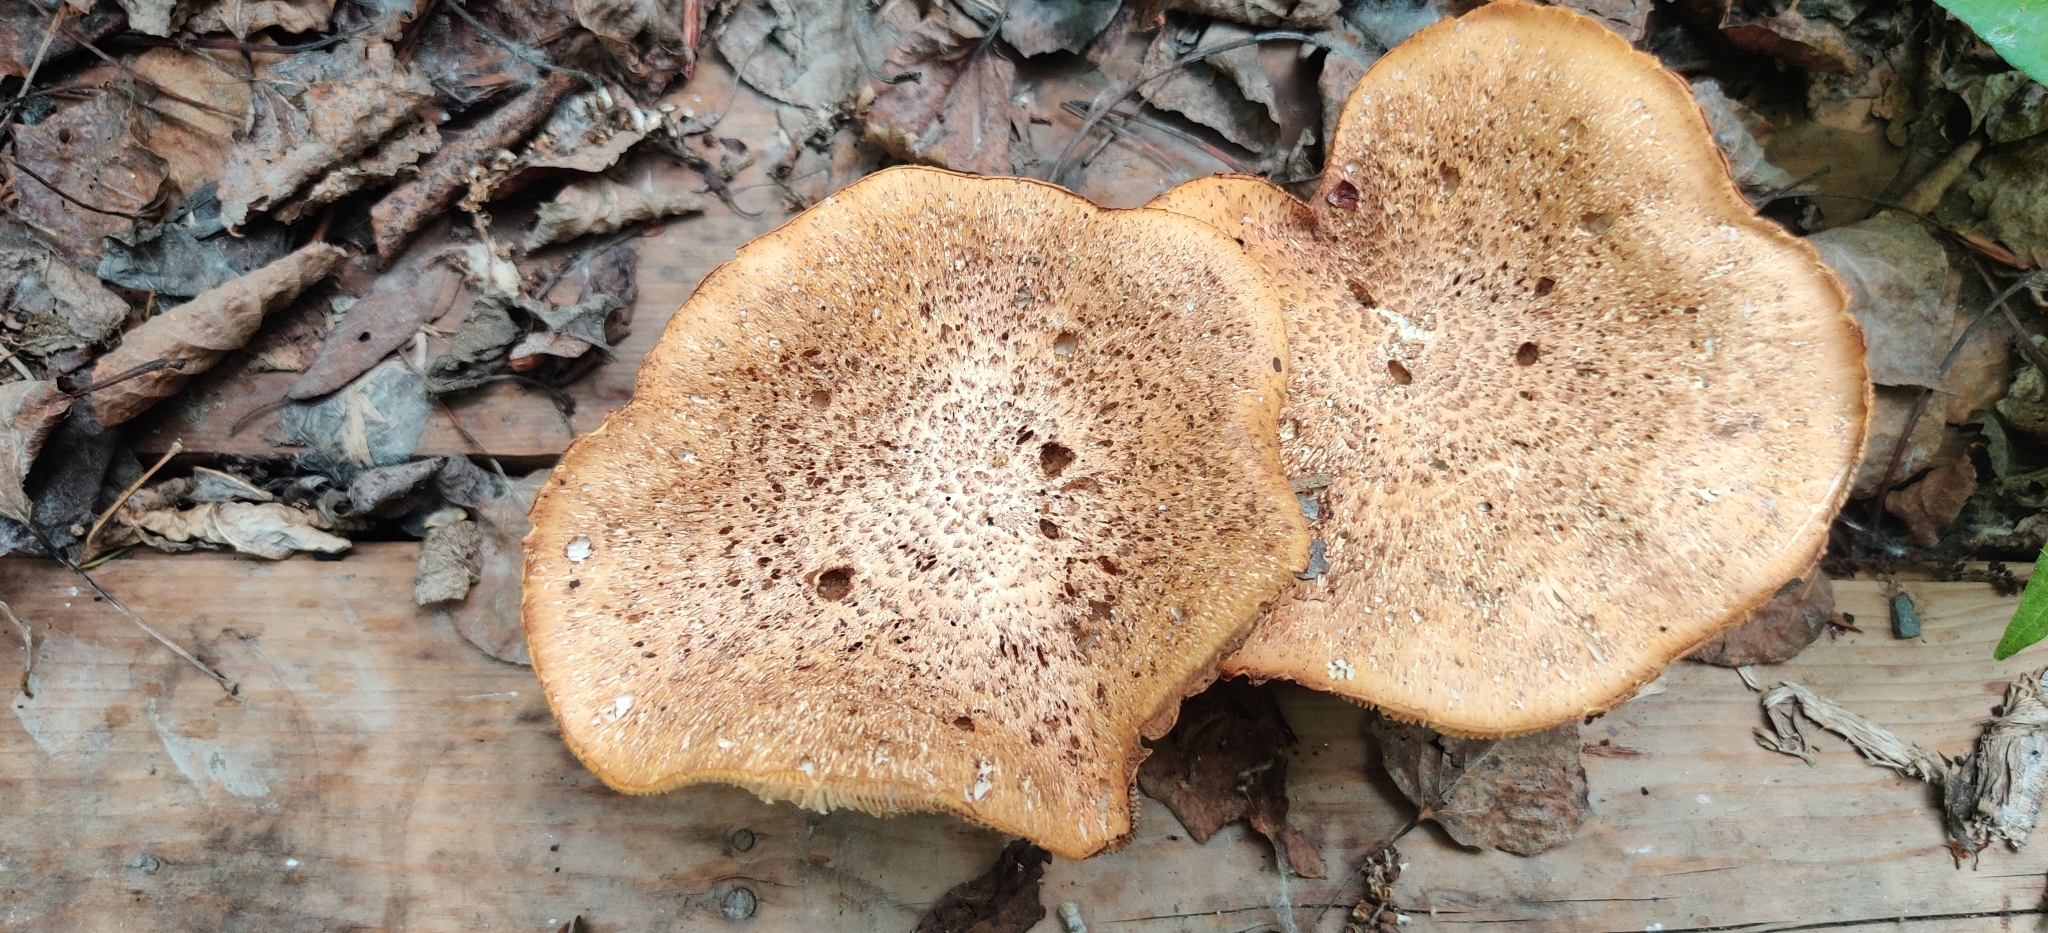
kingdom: Fungi
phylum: Basidiomycota
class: Agaricomycetes
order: Gloeophyllales
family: Gloeophyllaceae
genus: Neolentinus
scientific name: Neolentinus lepideus
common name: Scaly sawgill
